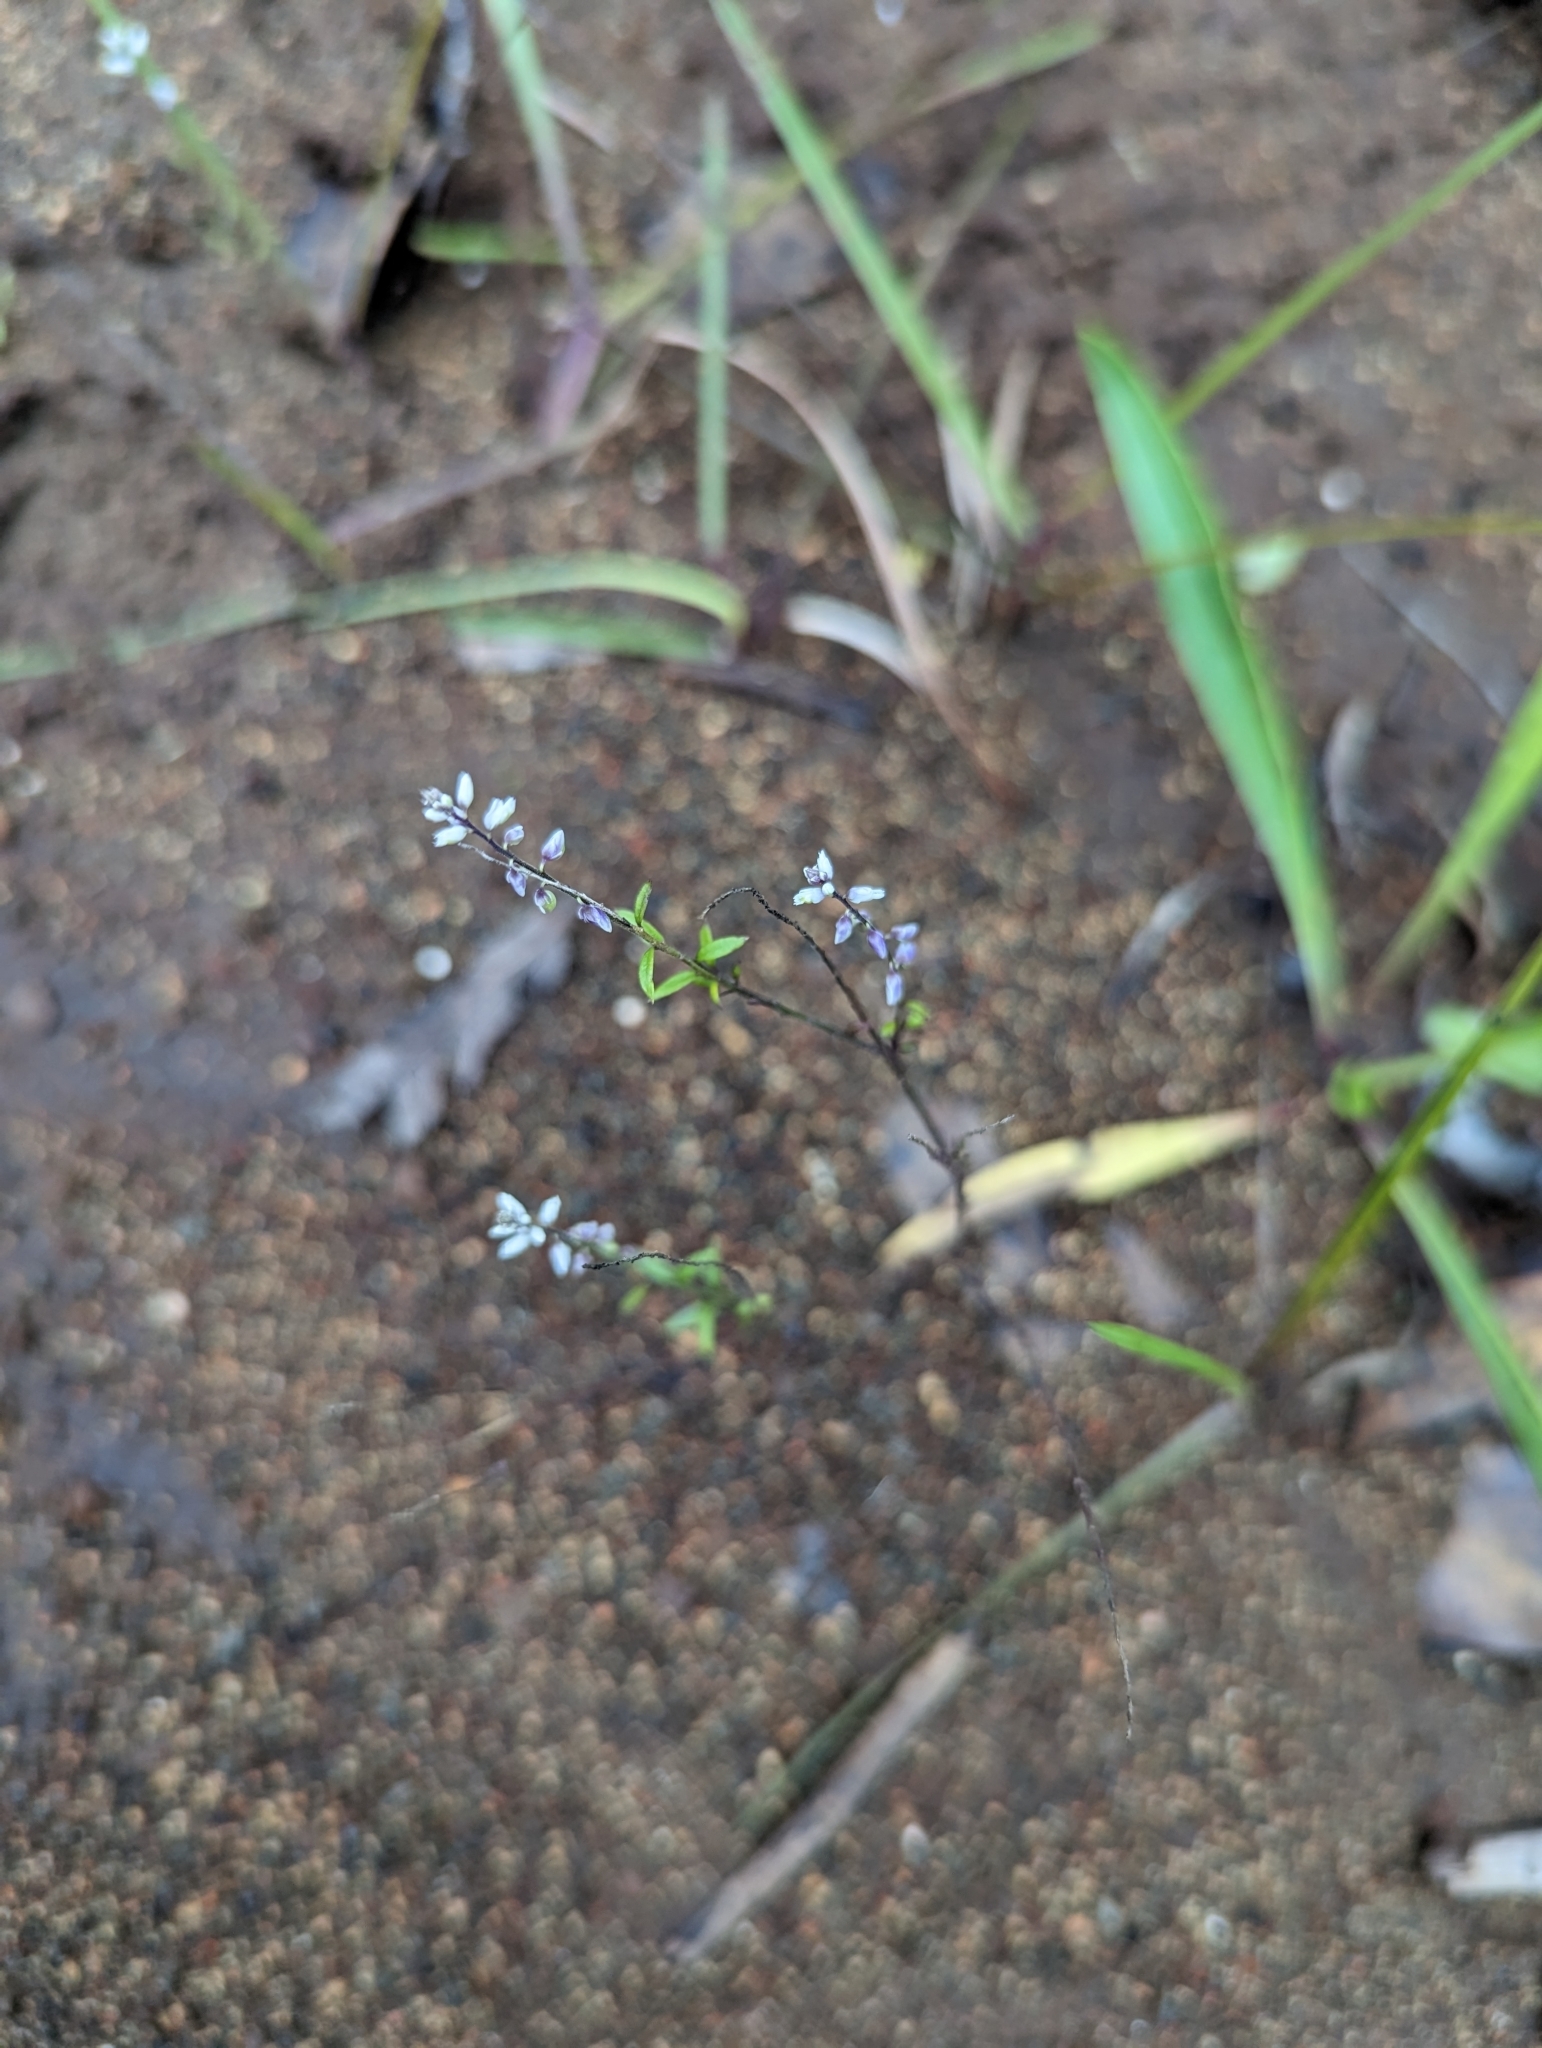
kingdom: Plantae
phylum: Tracheophyta
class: Magnoliopsida
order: Fabales
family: Polygalaceae
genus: Polygala
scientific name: Polygala paniculata
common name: Orosne
